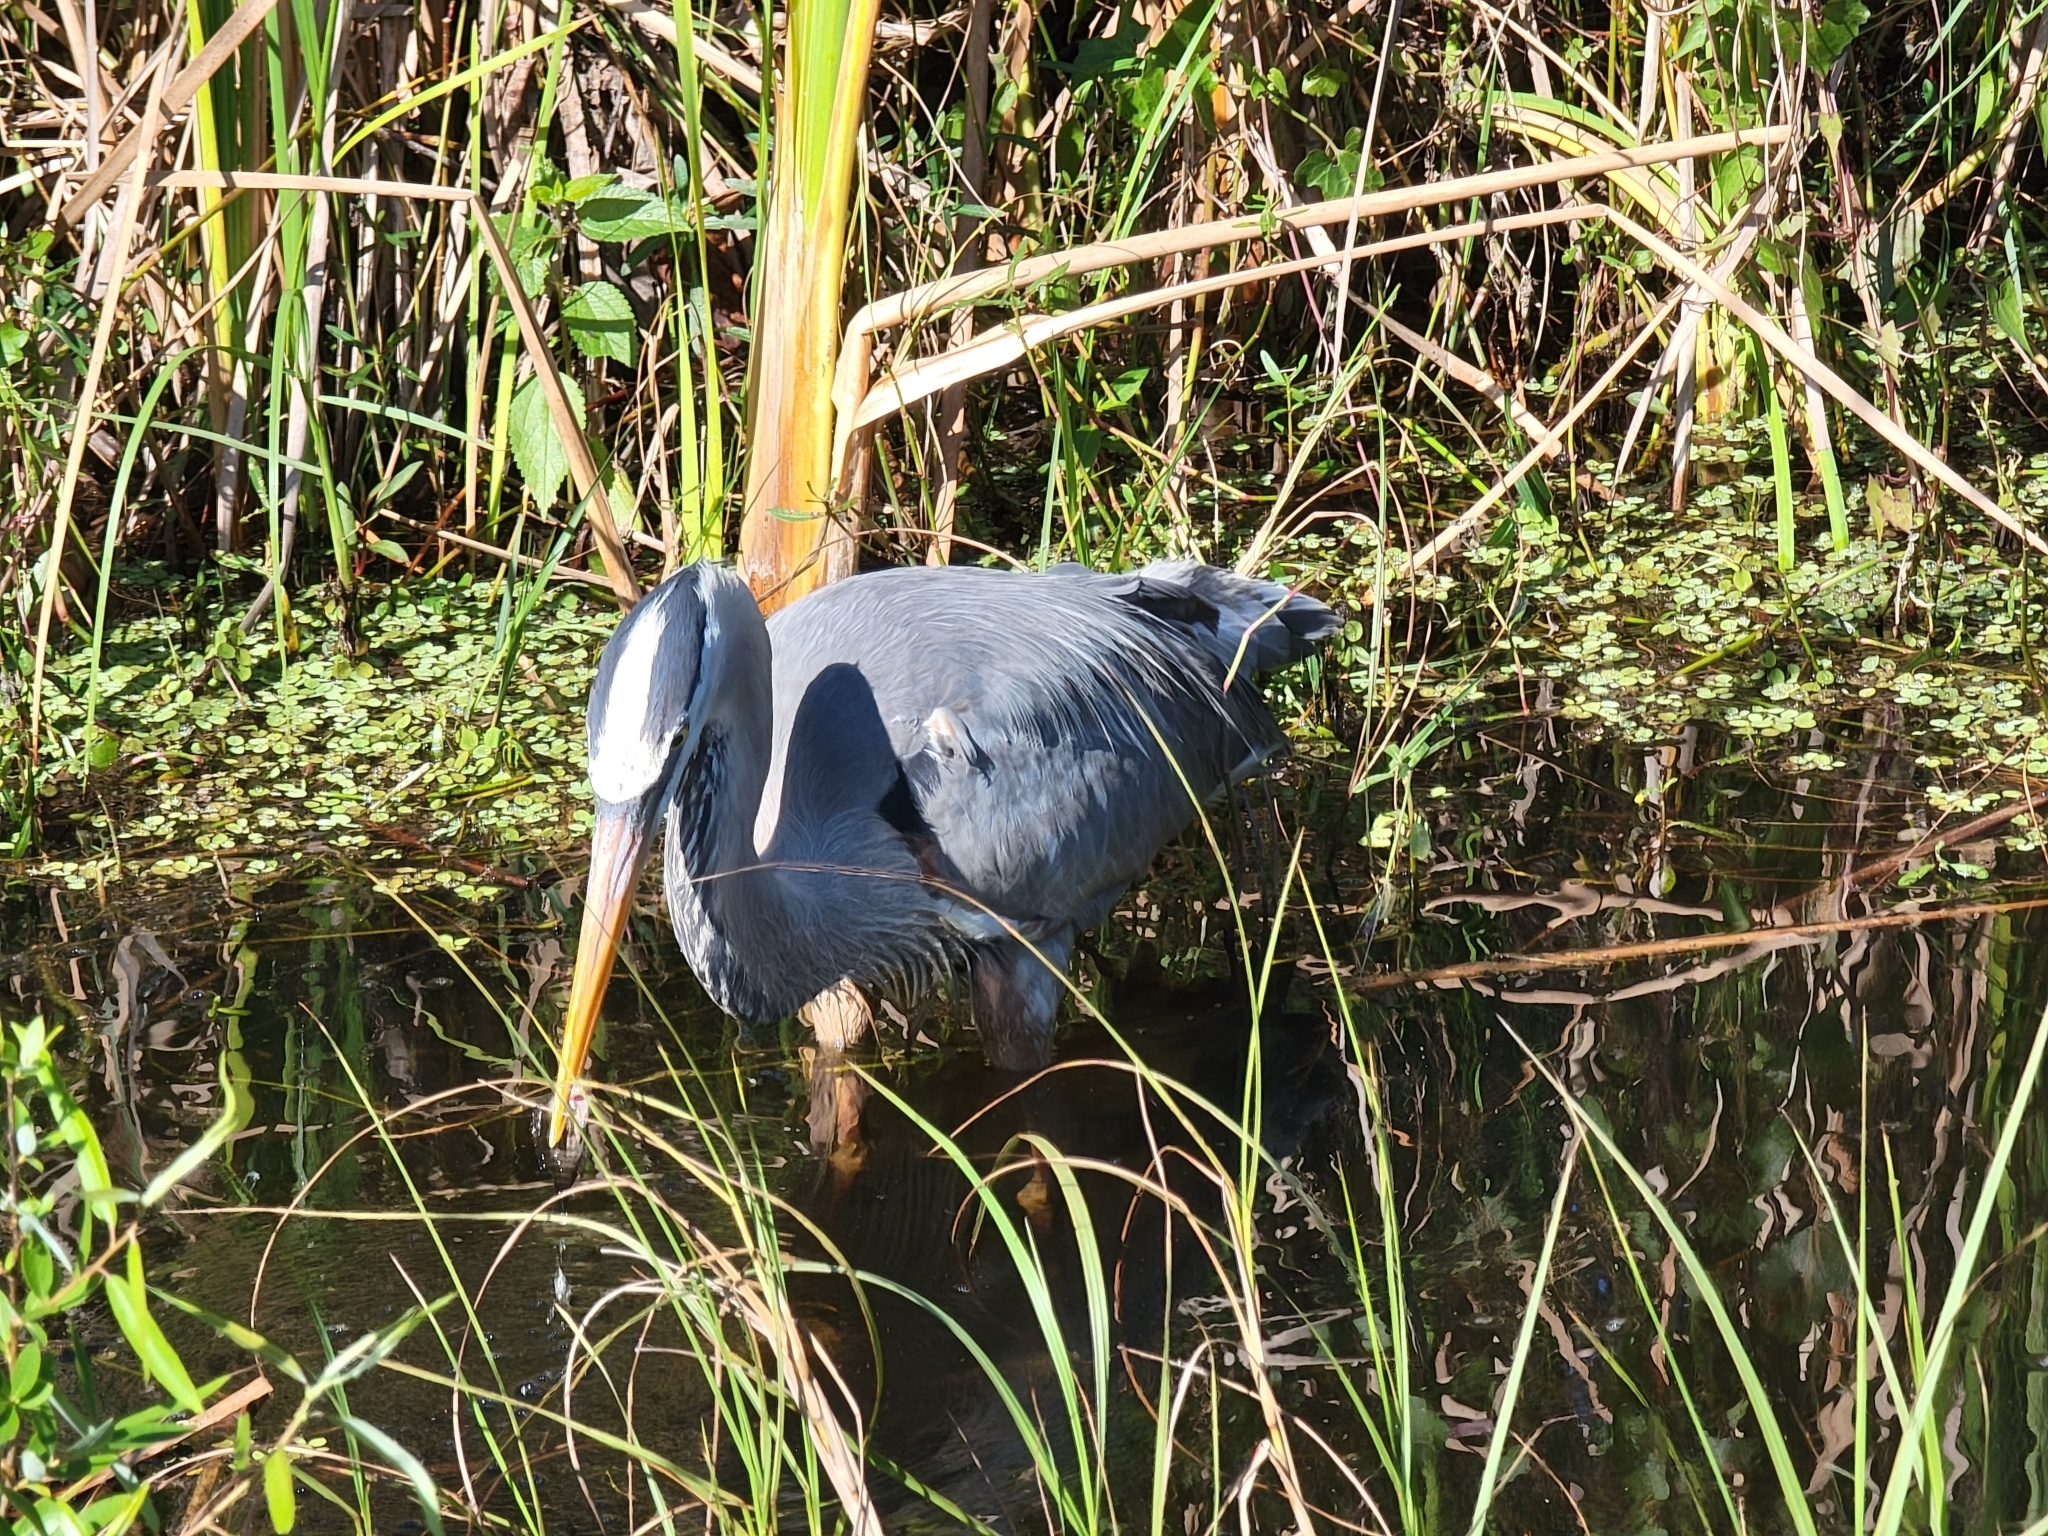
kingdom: Animalia
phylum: Chordata
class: Aves
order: Pelecaniformes
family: Ardeidae
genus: Ardea
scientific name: Ardea herodias
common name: Great blue heron
